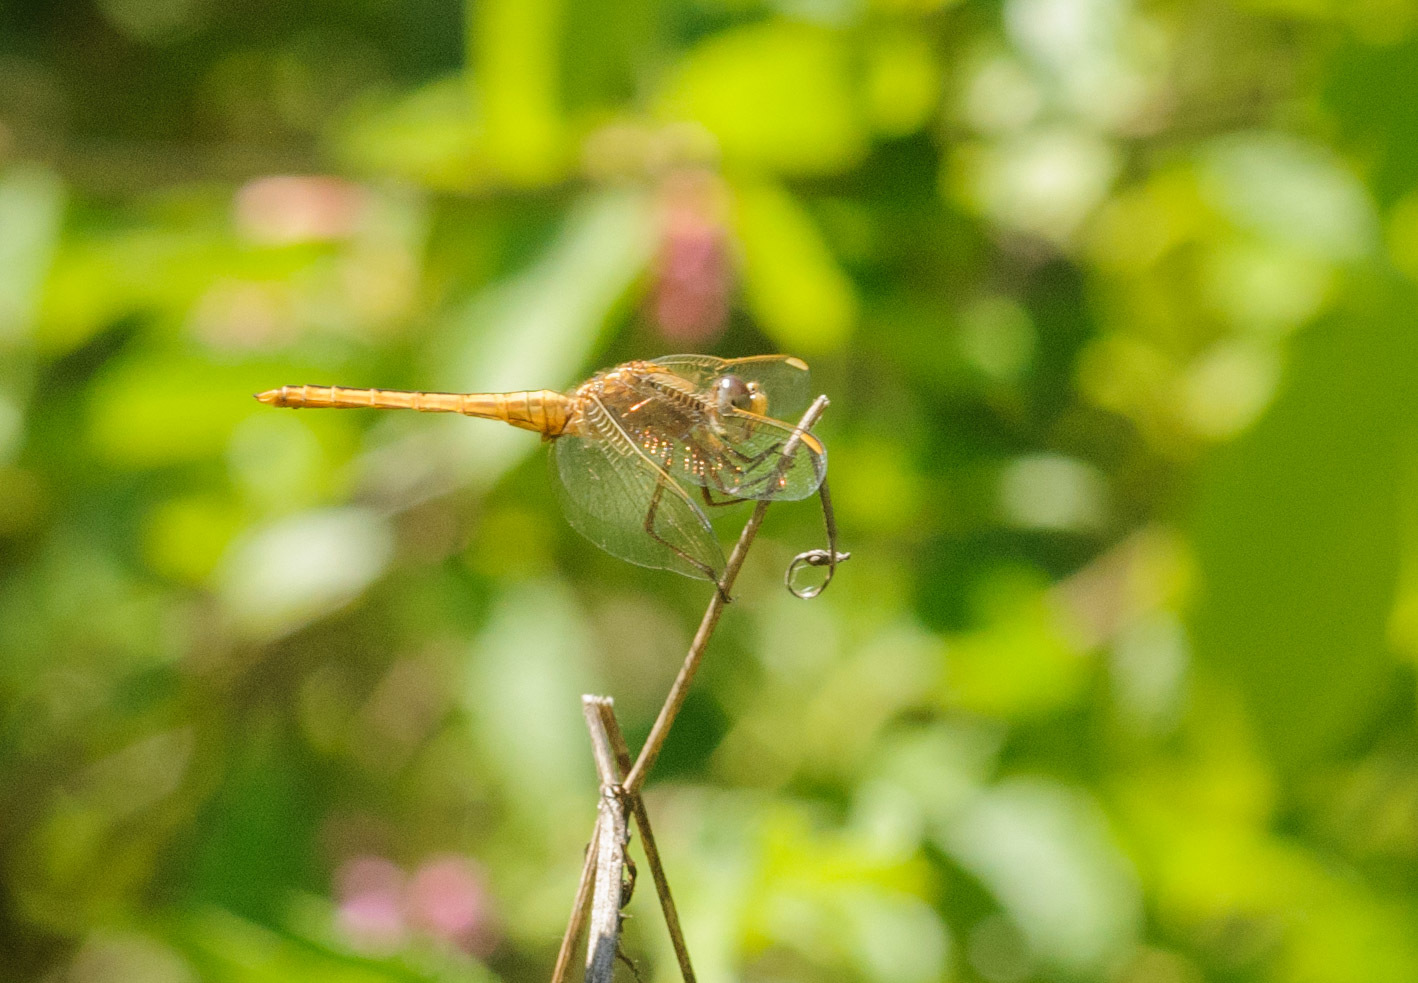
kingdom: Animalia
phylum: Arthropoda
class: Insecta
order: Odonata
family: Libellulidae
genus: Crocothemis
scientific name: Crocothemis nigrifrons
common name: Black-headed skimmer
